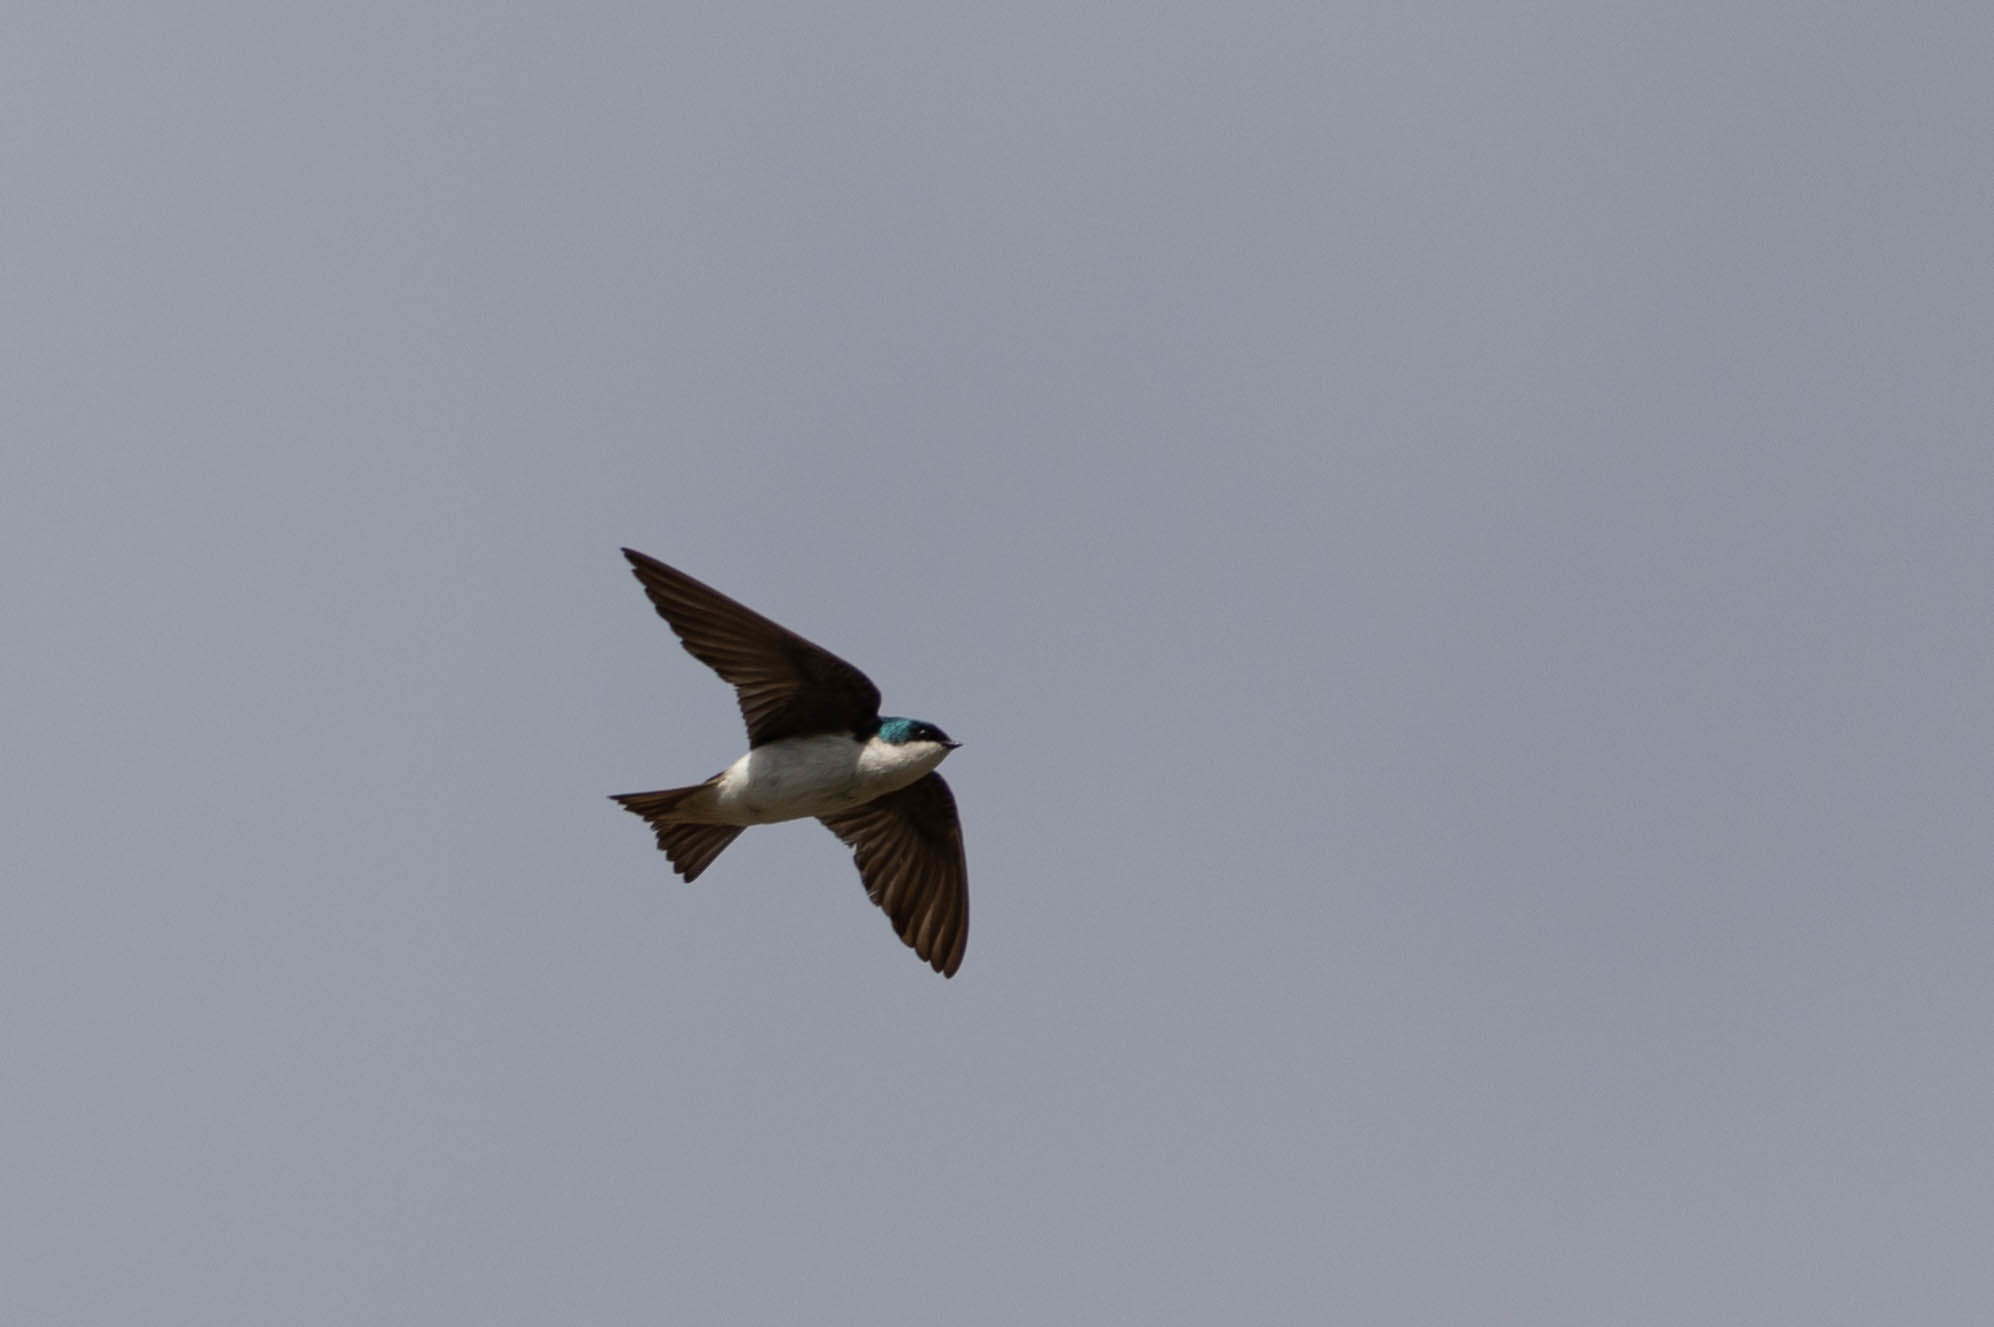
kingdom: Animalia
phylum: Chordata
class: Aves
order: Passeriformes
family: Hirundinidae
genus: Tachycineta
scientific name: Tachycineta bicolor
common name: Tree swallow
